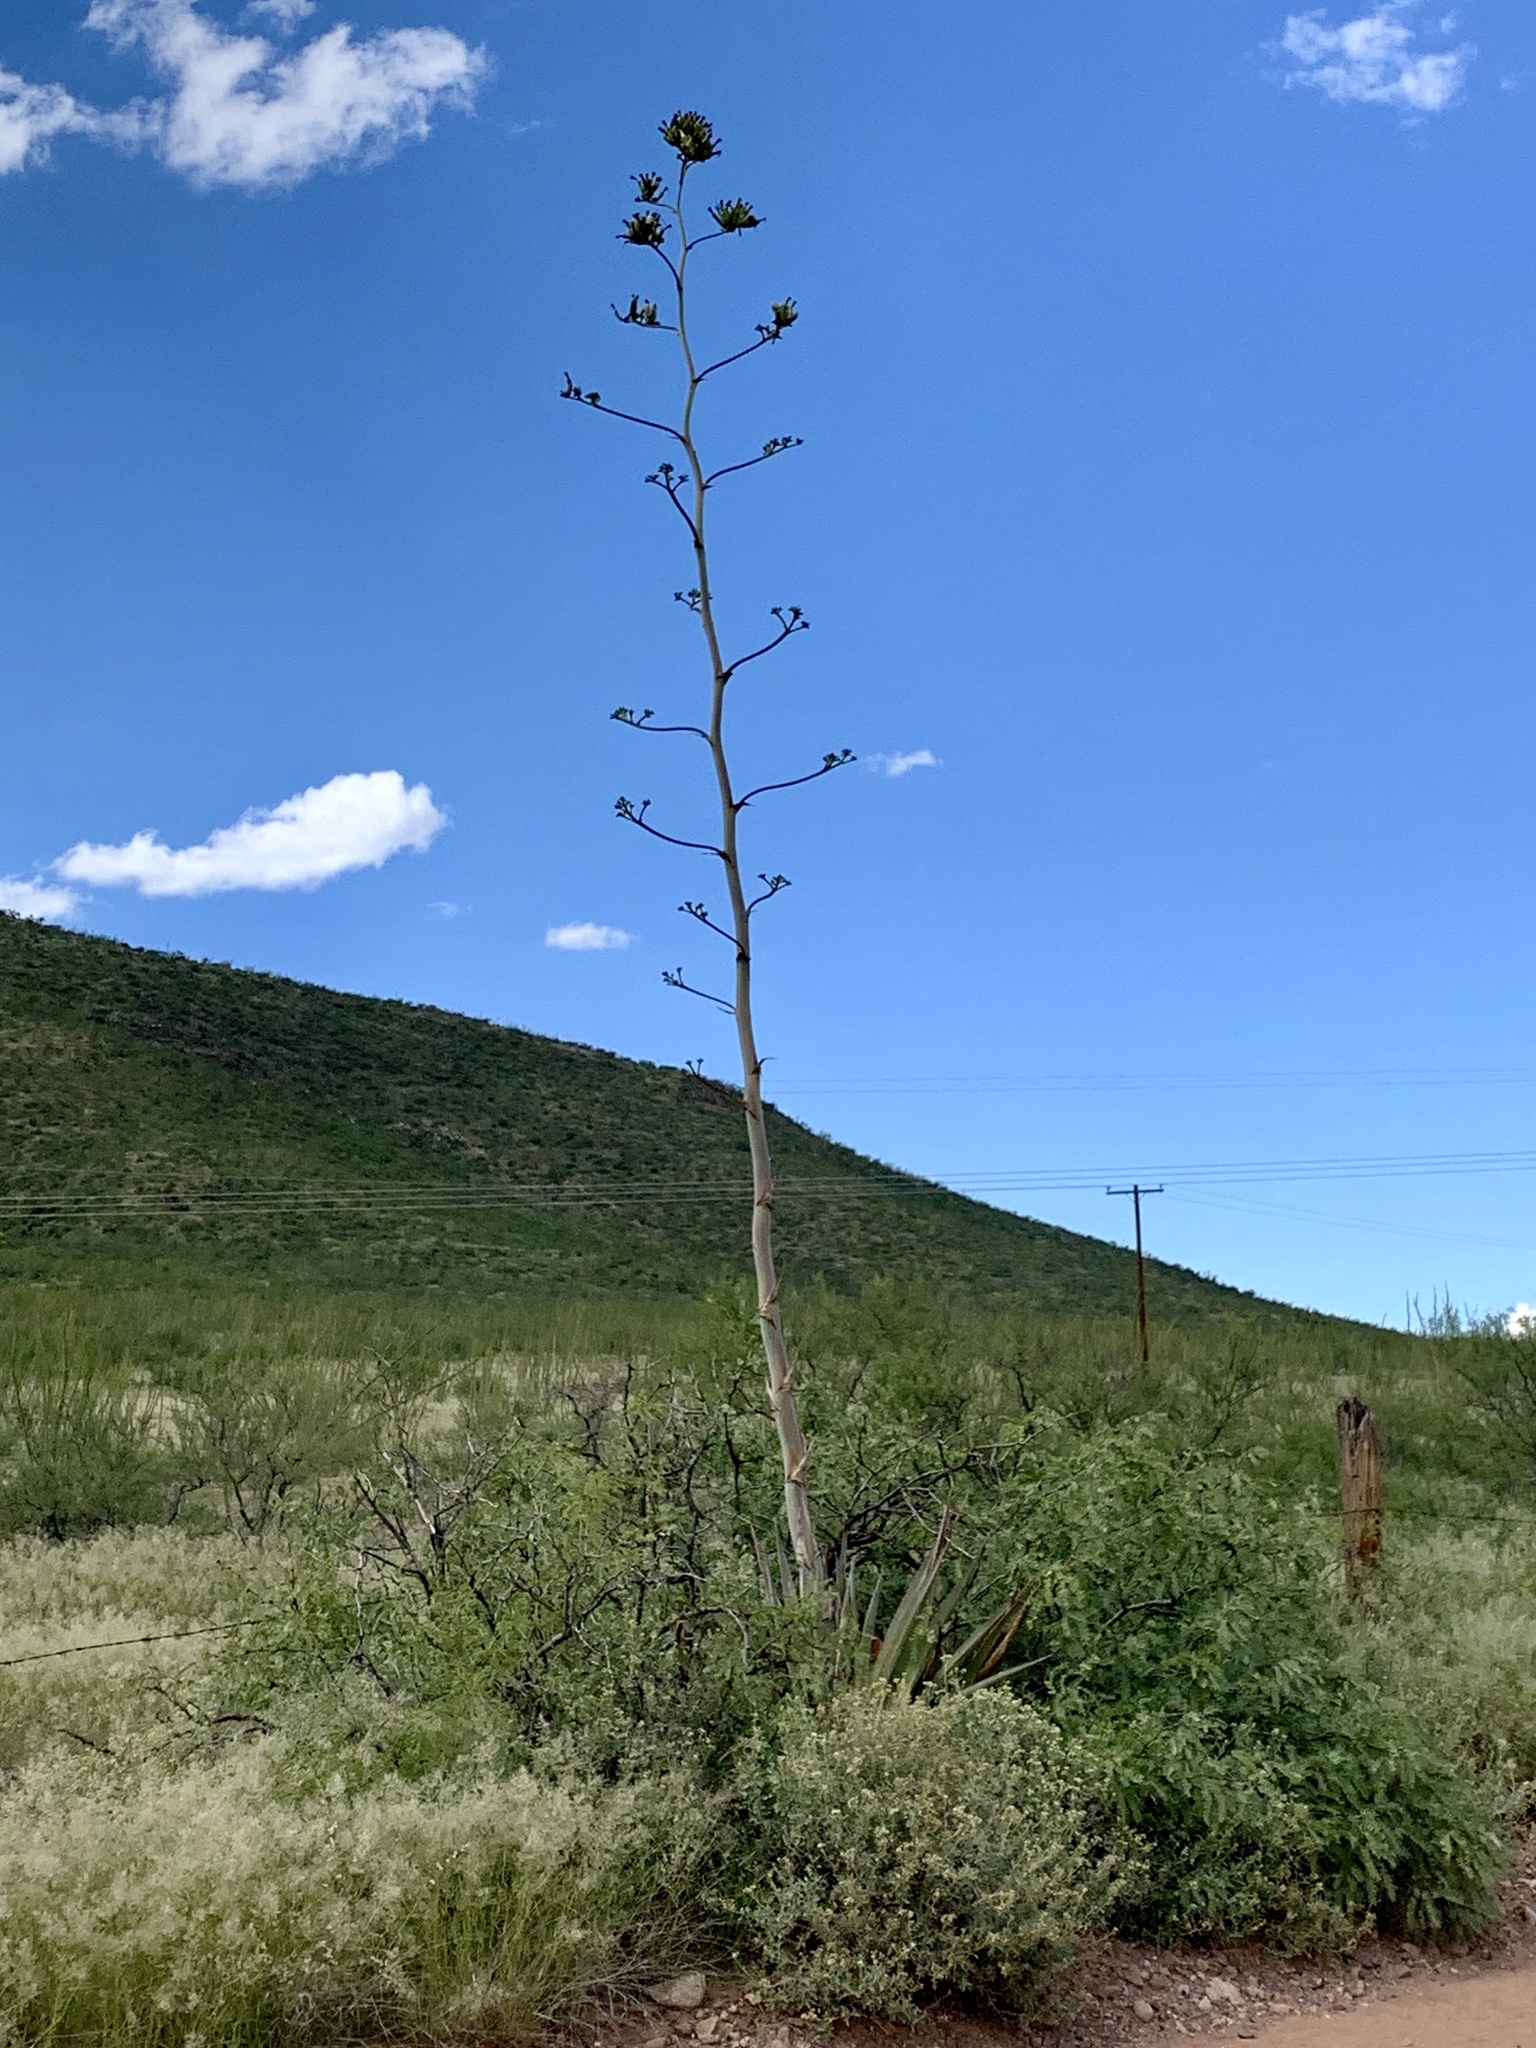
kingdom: Plantae
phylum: Tracheophyta
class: Liliopsida
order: Asparagales
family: Asparagaceae
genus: Agave
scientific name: Agave palmeri
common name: Palmer agave
